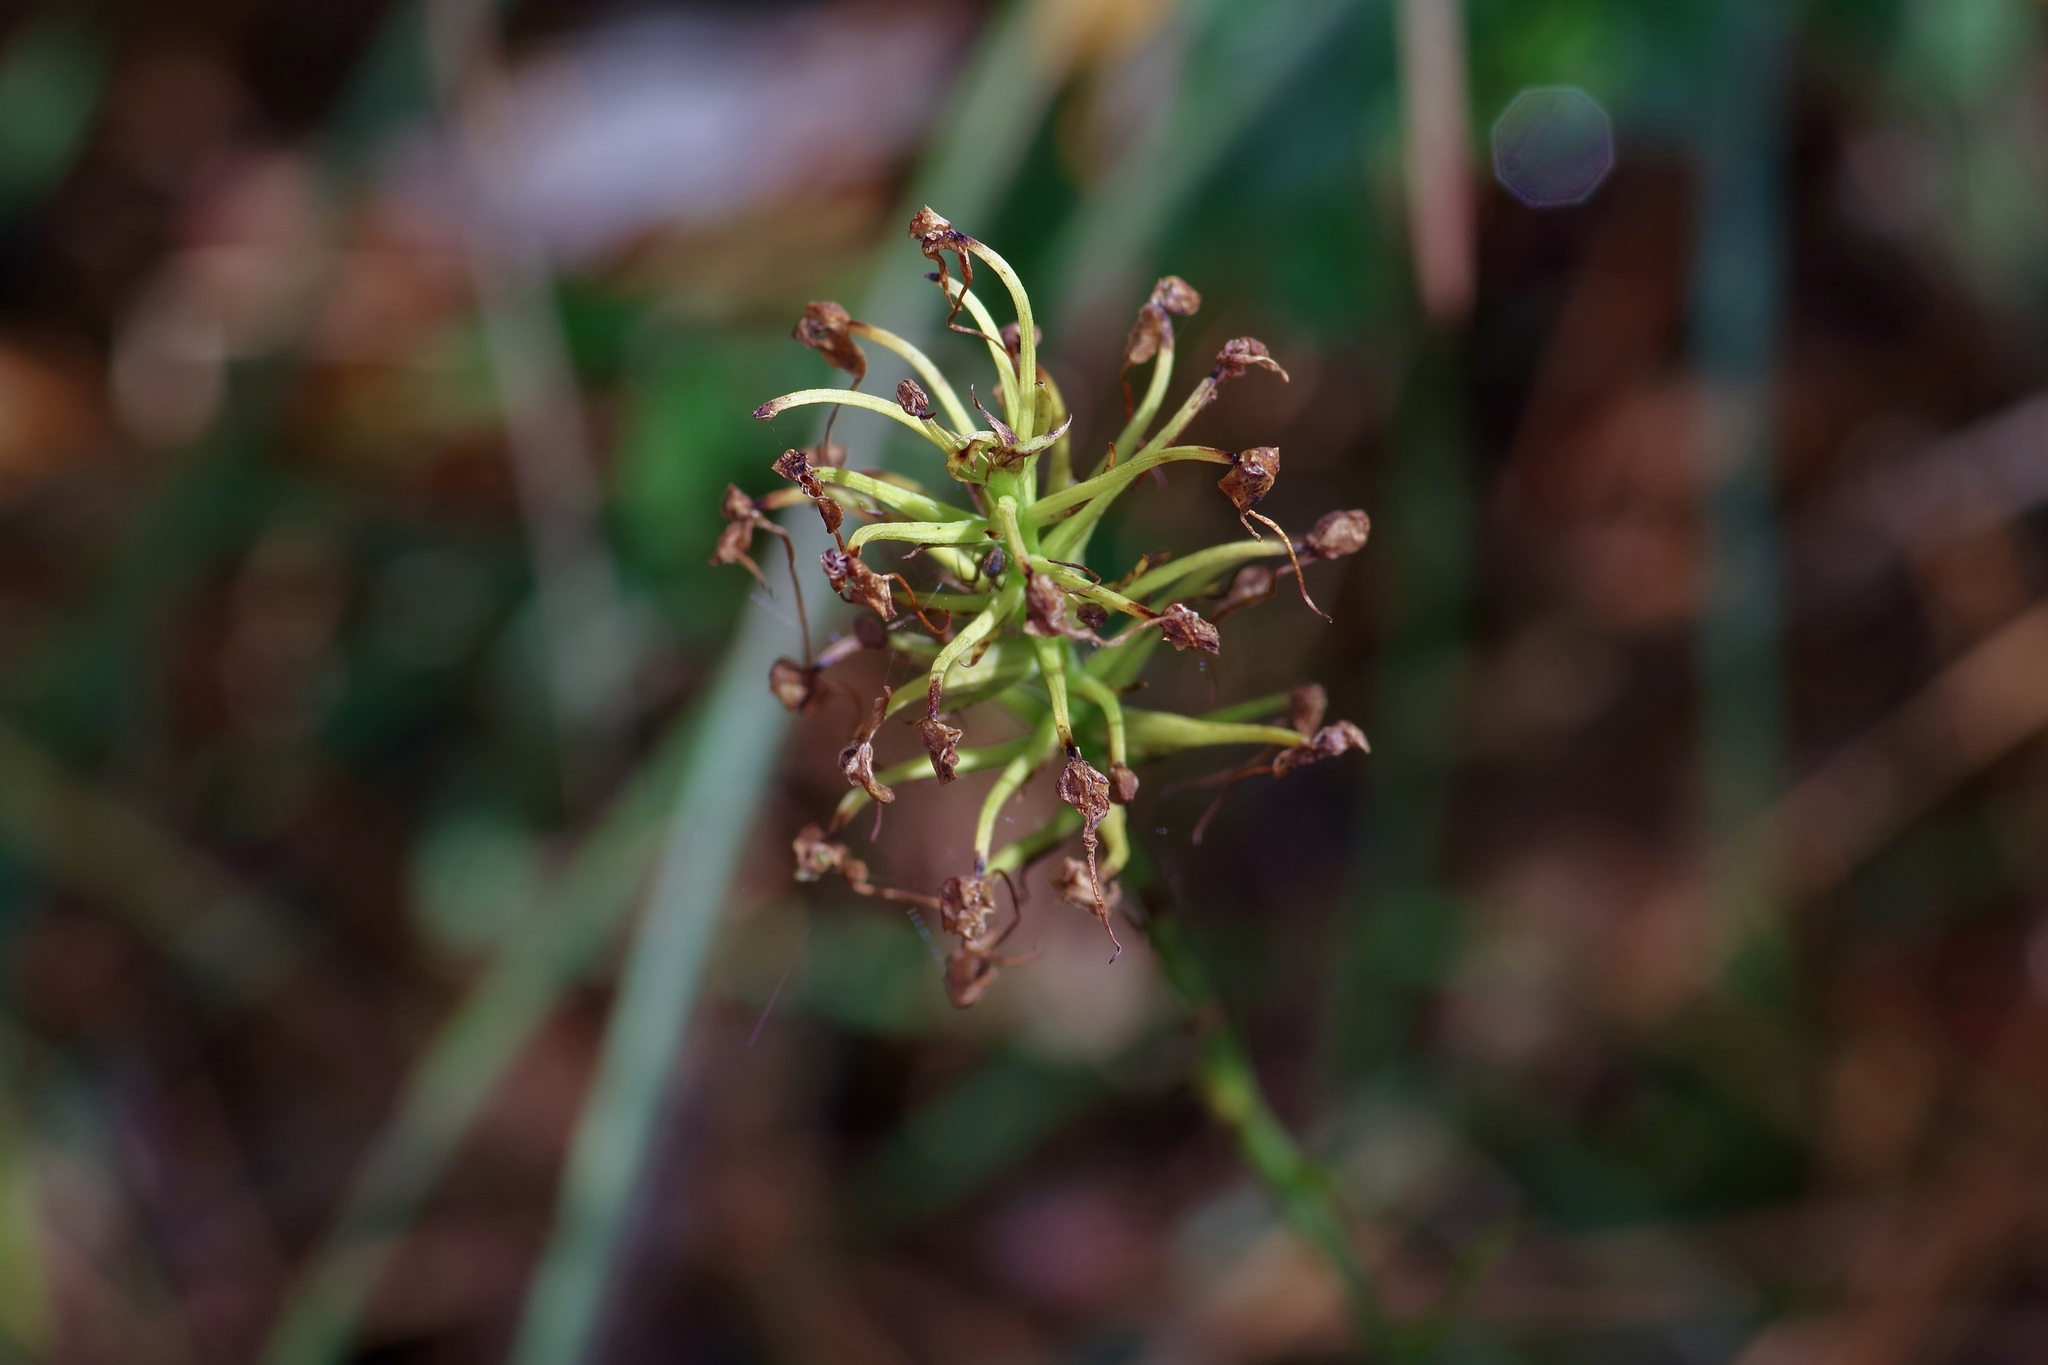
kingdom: Plantae
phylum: Tracheophyta
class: Liliopsida
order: Asparagales
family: Orchidaceae
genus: Platanthera
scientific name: Platanthera chapmanii
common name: Chapman’s fringed orchid
